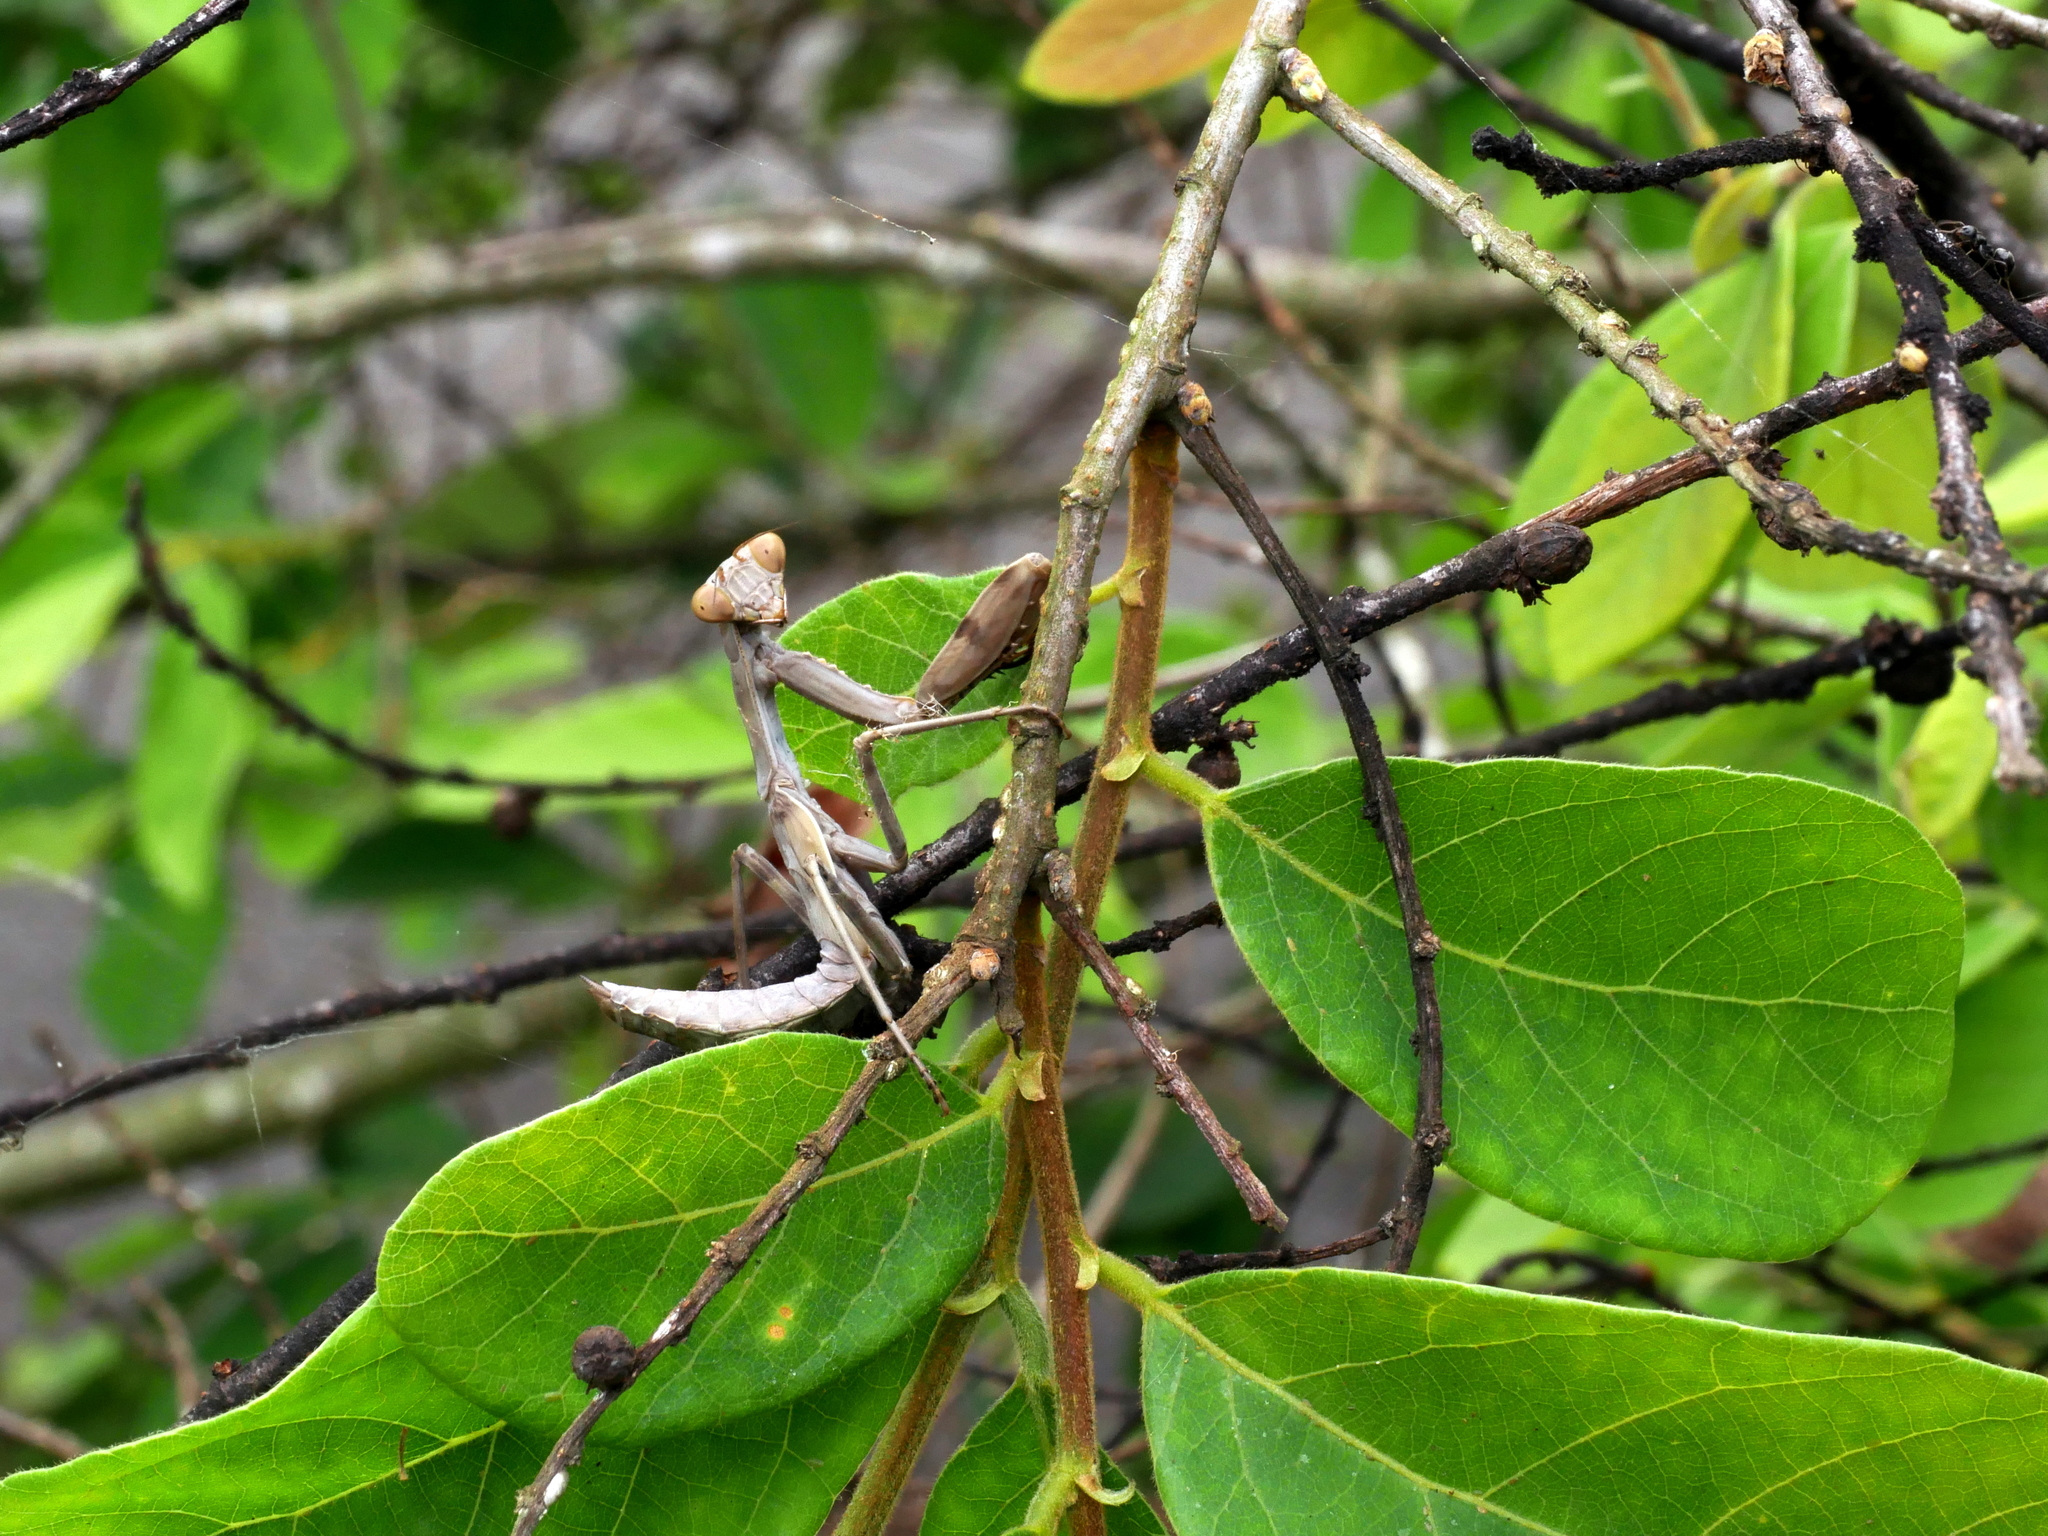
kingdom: Animalia
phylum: Arthropoda
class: Insecta
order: Mantodea
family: Mantidae
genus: Hierodula
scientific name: Hierodula patellifera
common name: Asian mantis
